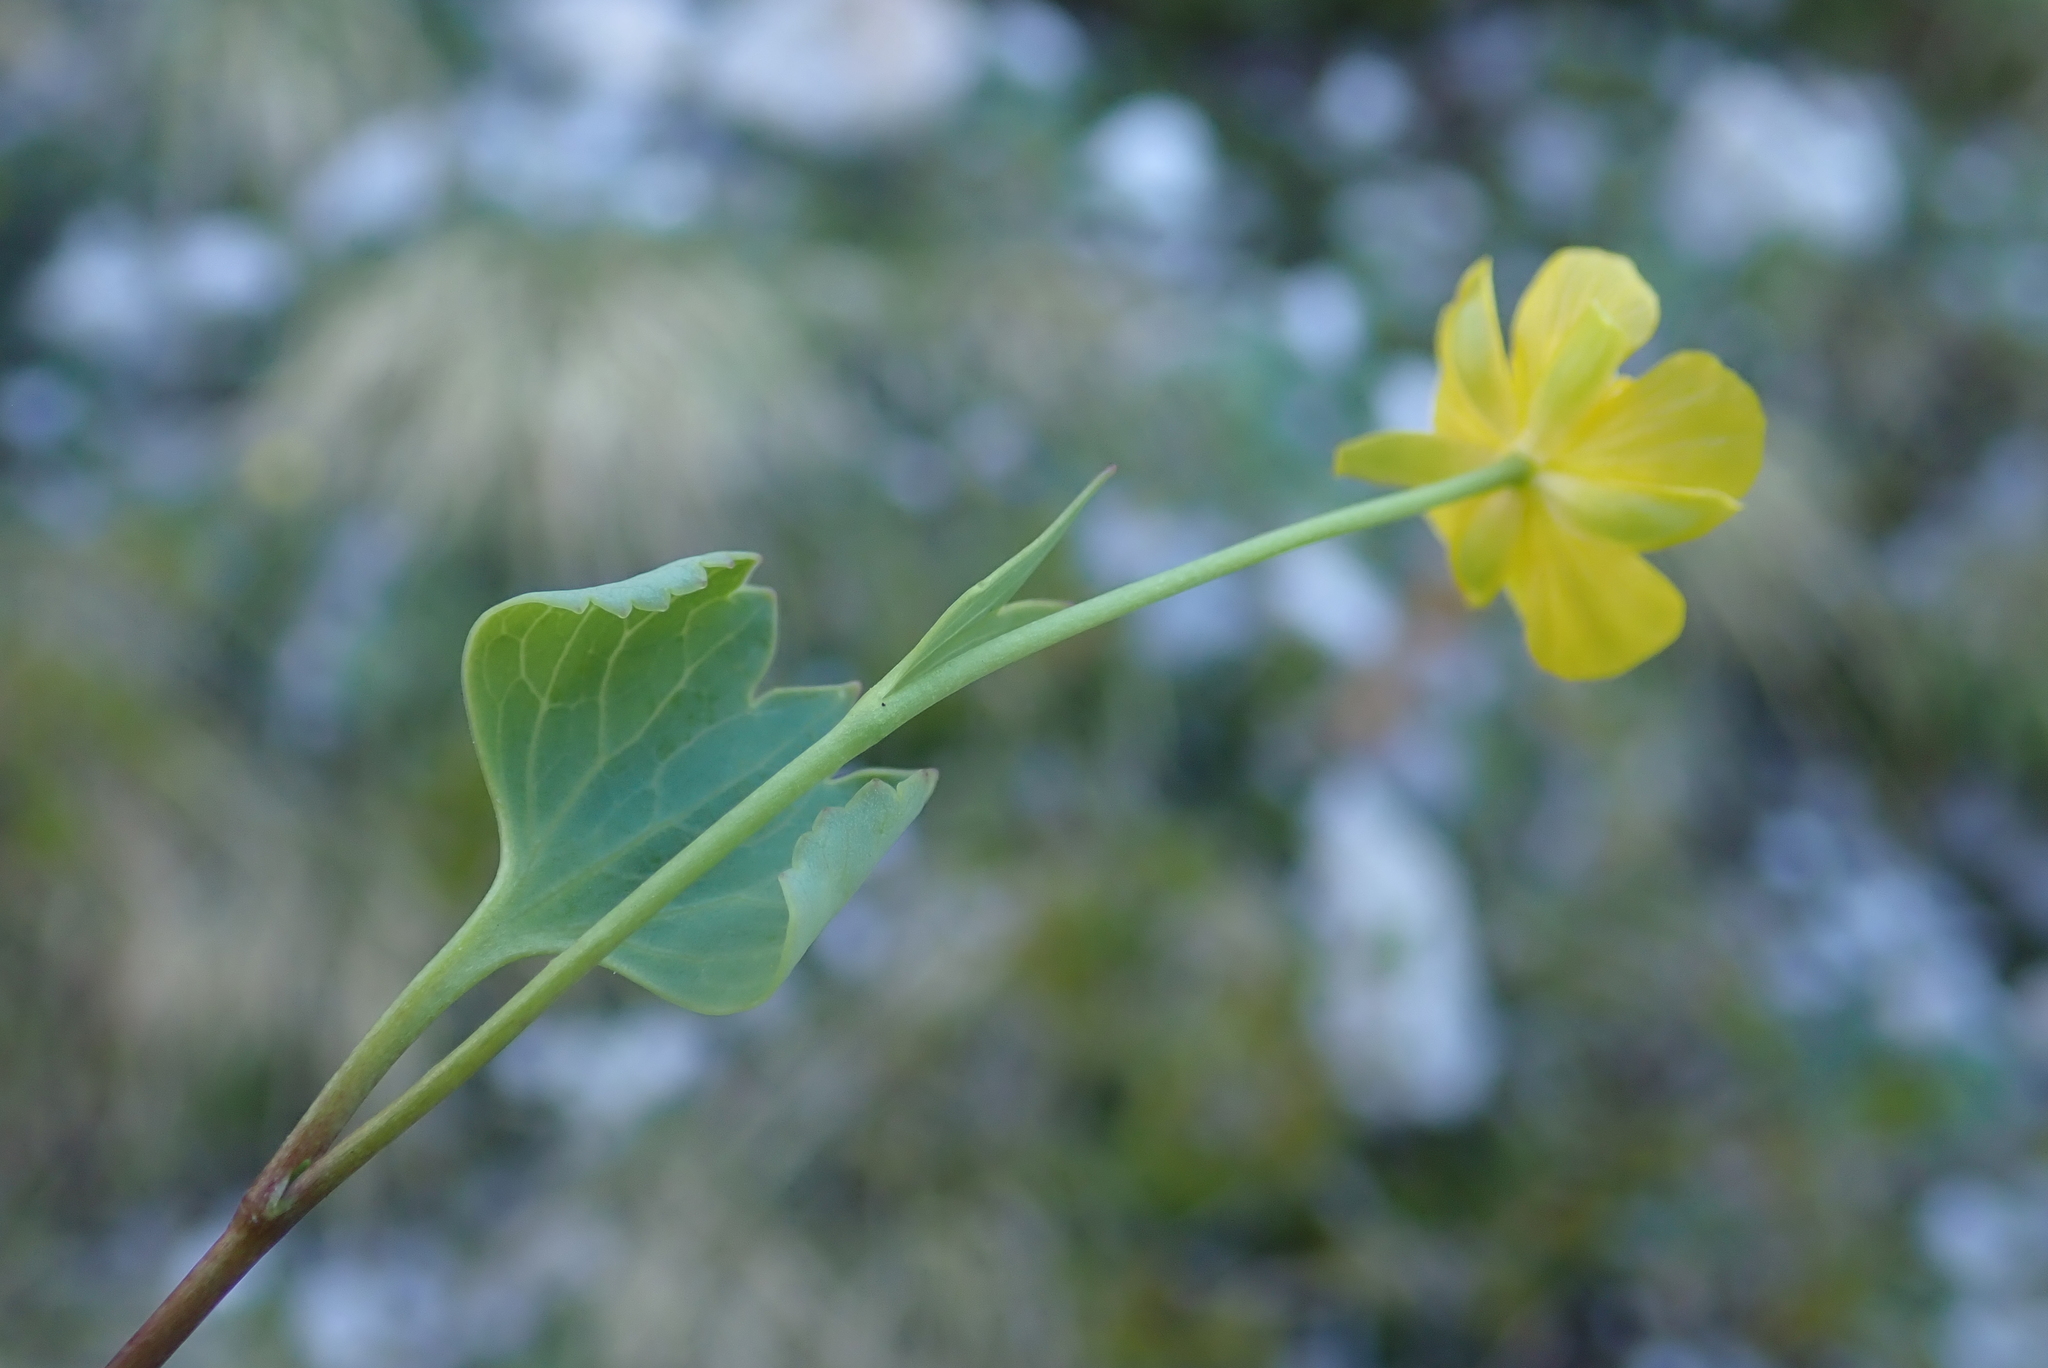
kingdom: Plantae
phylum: Tracheophyta
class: Magnoliopsida
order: Ranunculales
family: Ranunculaceae
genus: Ranunculus
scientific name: Ranunculus hybridus
